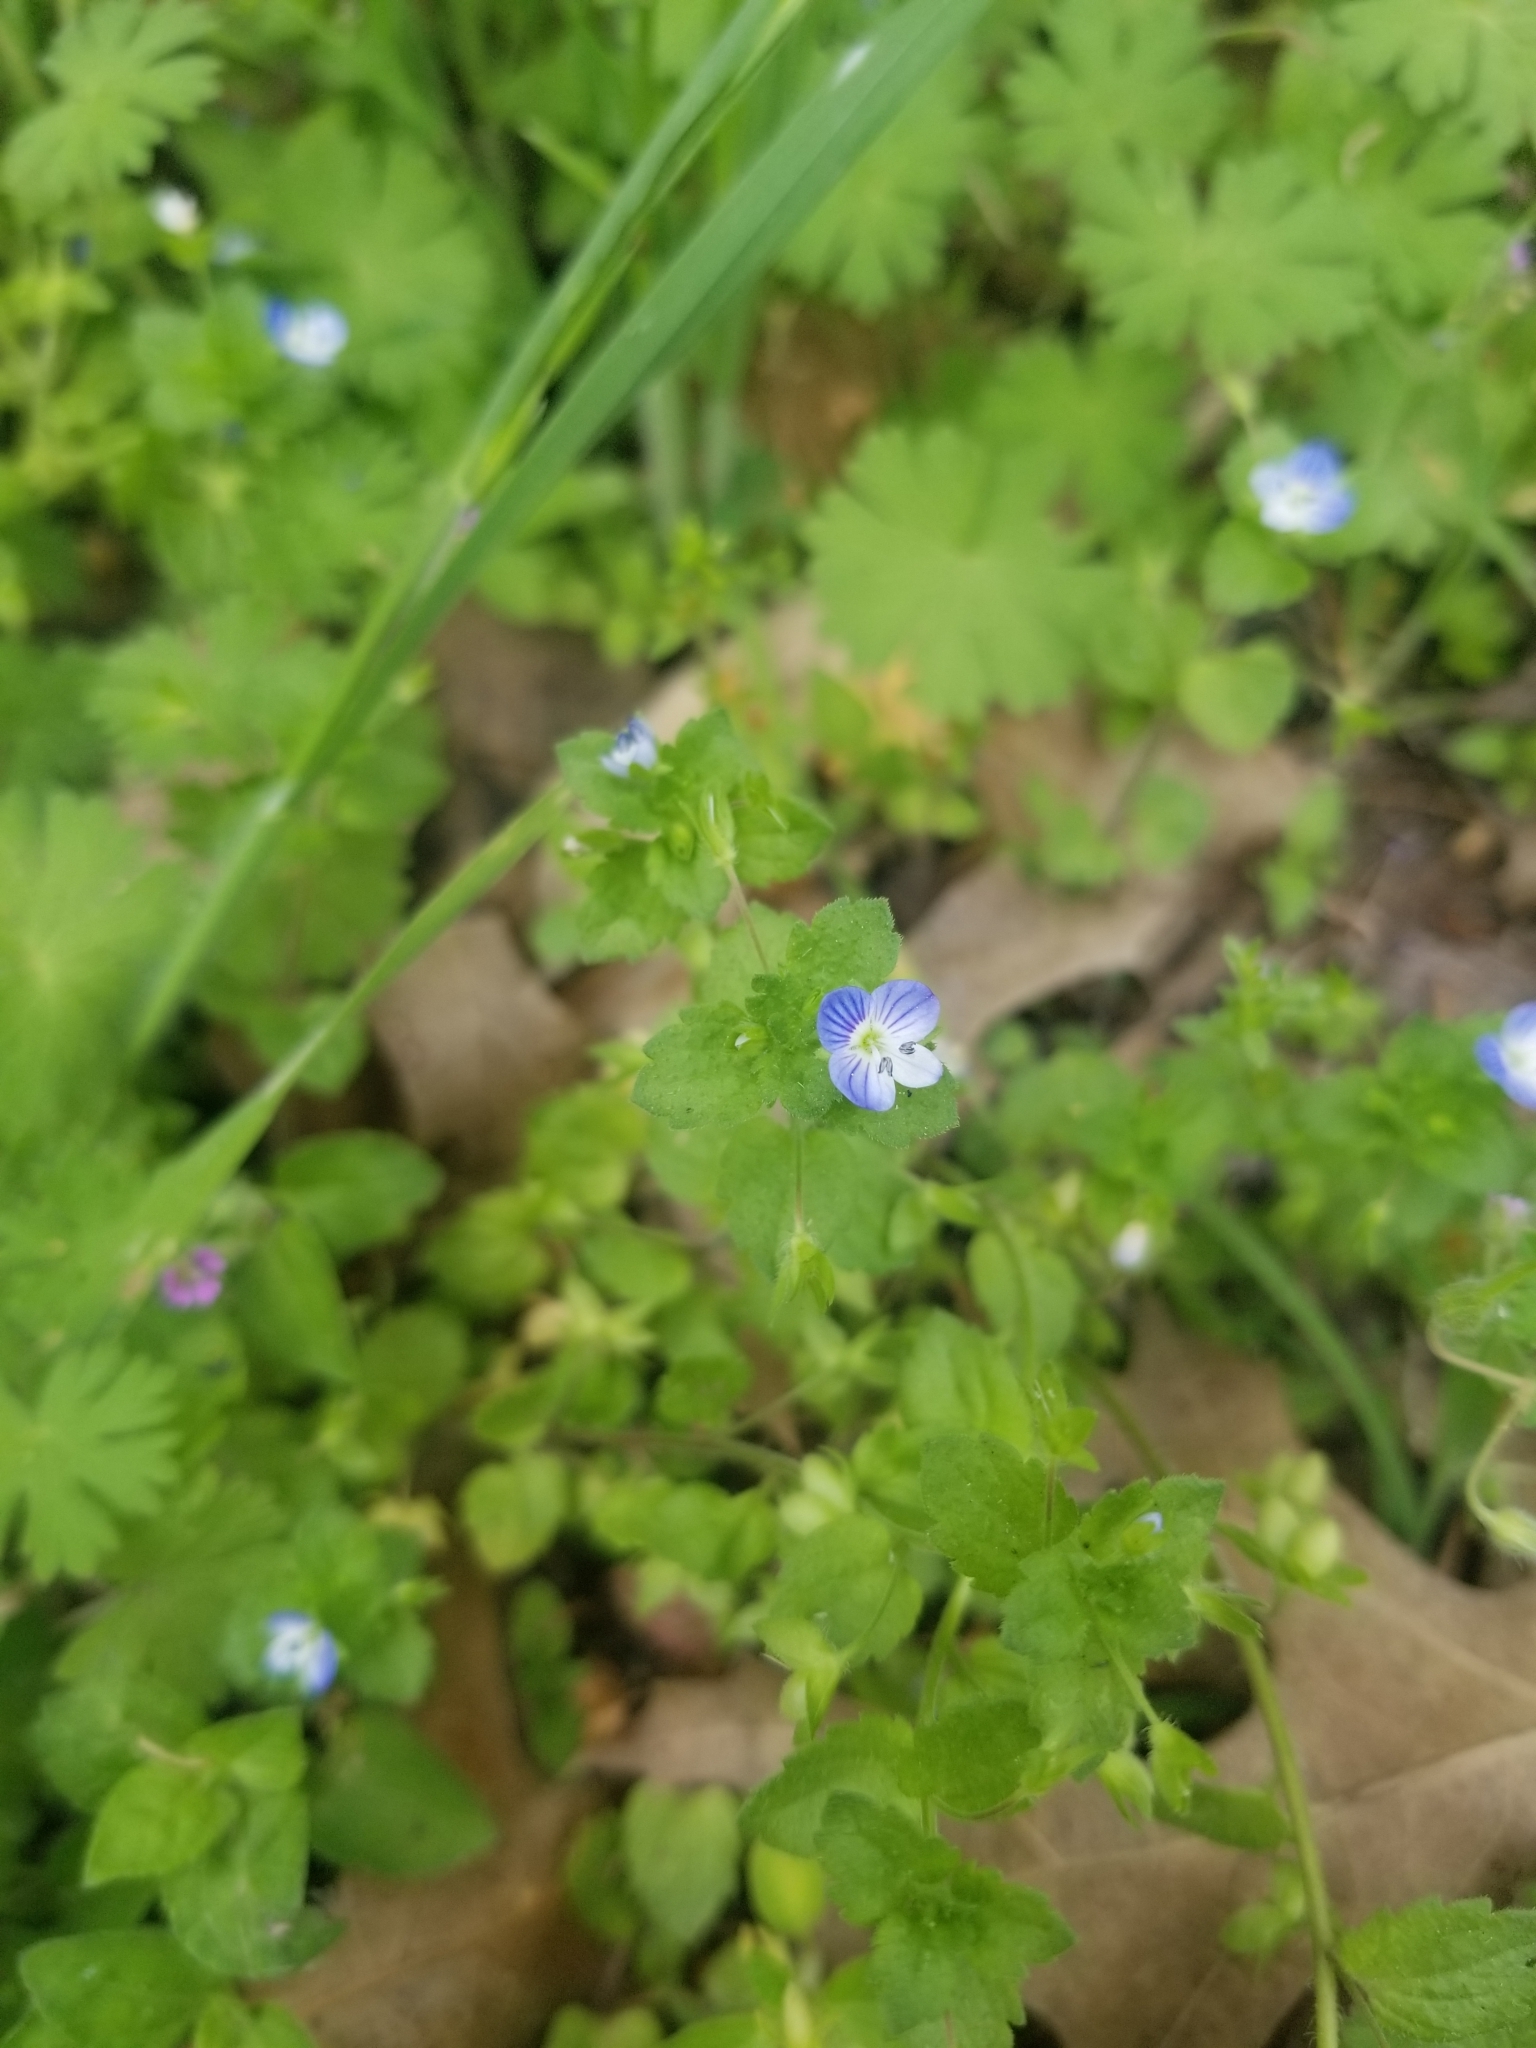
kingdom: Plantae
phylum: Tracheophyta
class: Magnoliopsida
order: Lamiales
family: Plantaginaceae
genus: Veronica
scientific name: Veronica persica
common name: Common field-speedwell
